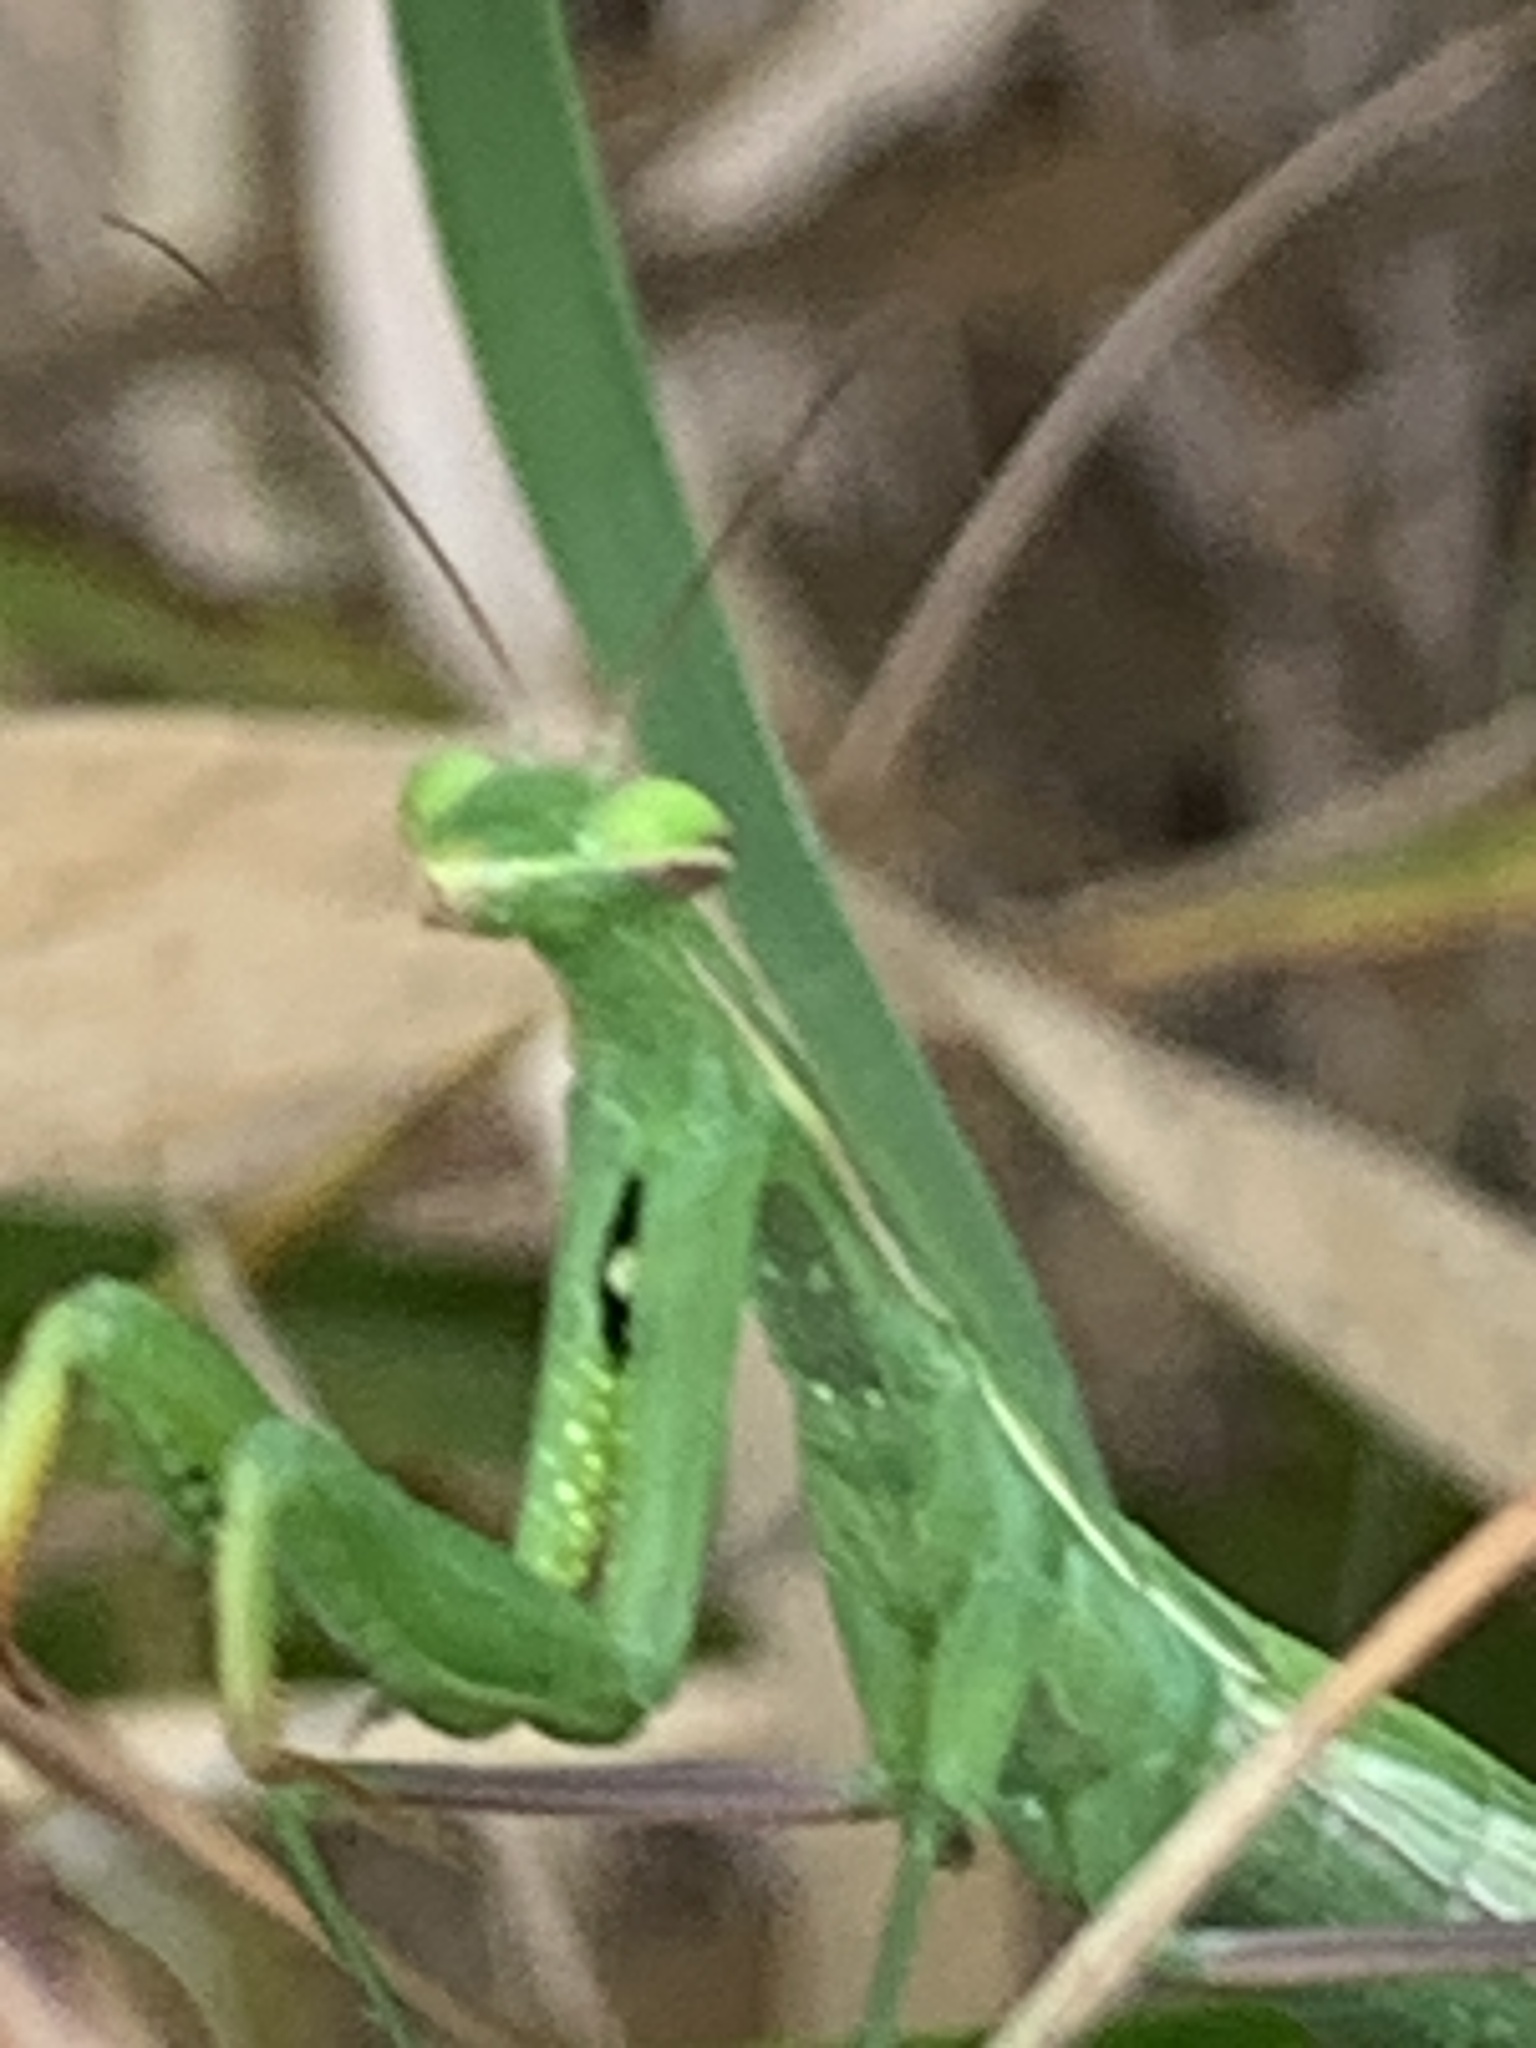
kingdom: Animalia
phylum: Arthropoda
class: Insecta
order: Mantodea
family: Mantidae
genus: Mantis
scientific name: Mantis religiosa
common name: Praying mantis
